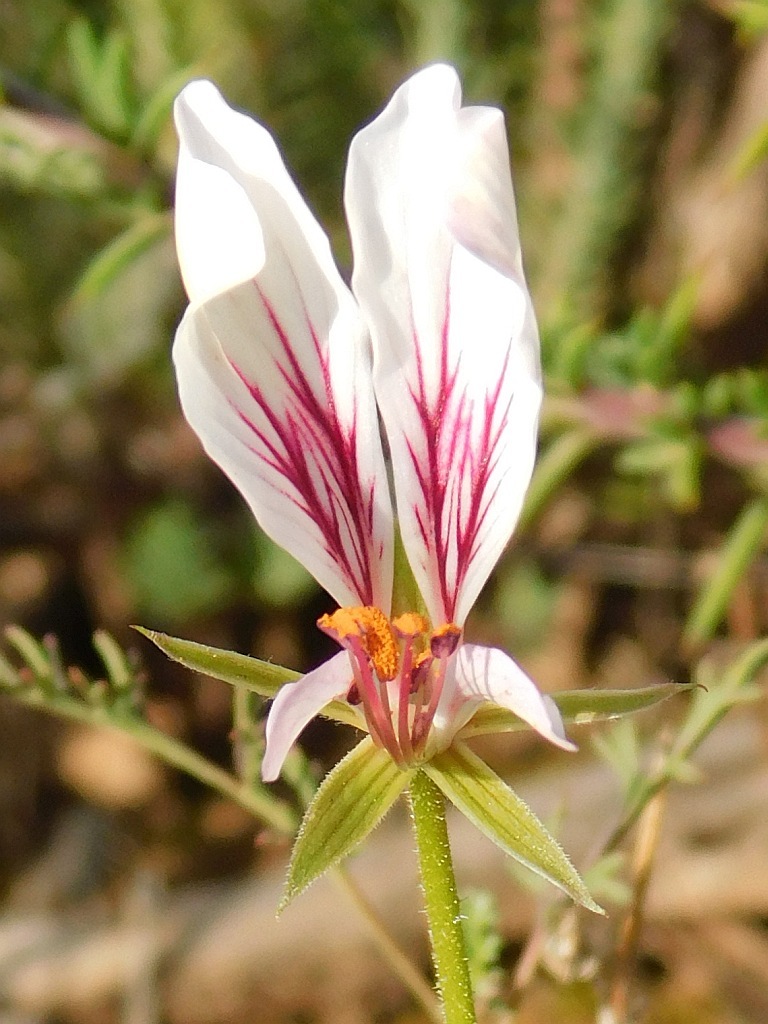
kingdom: Plantae
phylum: Tracheophyta
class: Magnoliopsida
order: Geraniales
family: Geraniaceae
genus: Pelargonium
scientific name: Pelargonium caucalifolium
